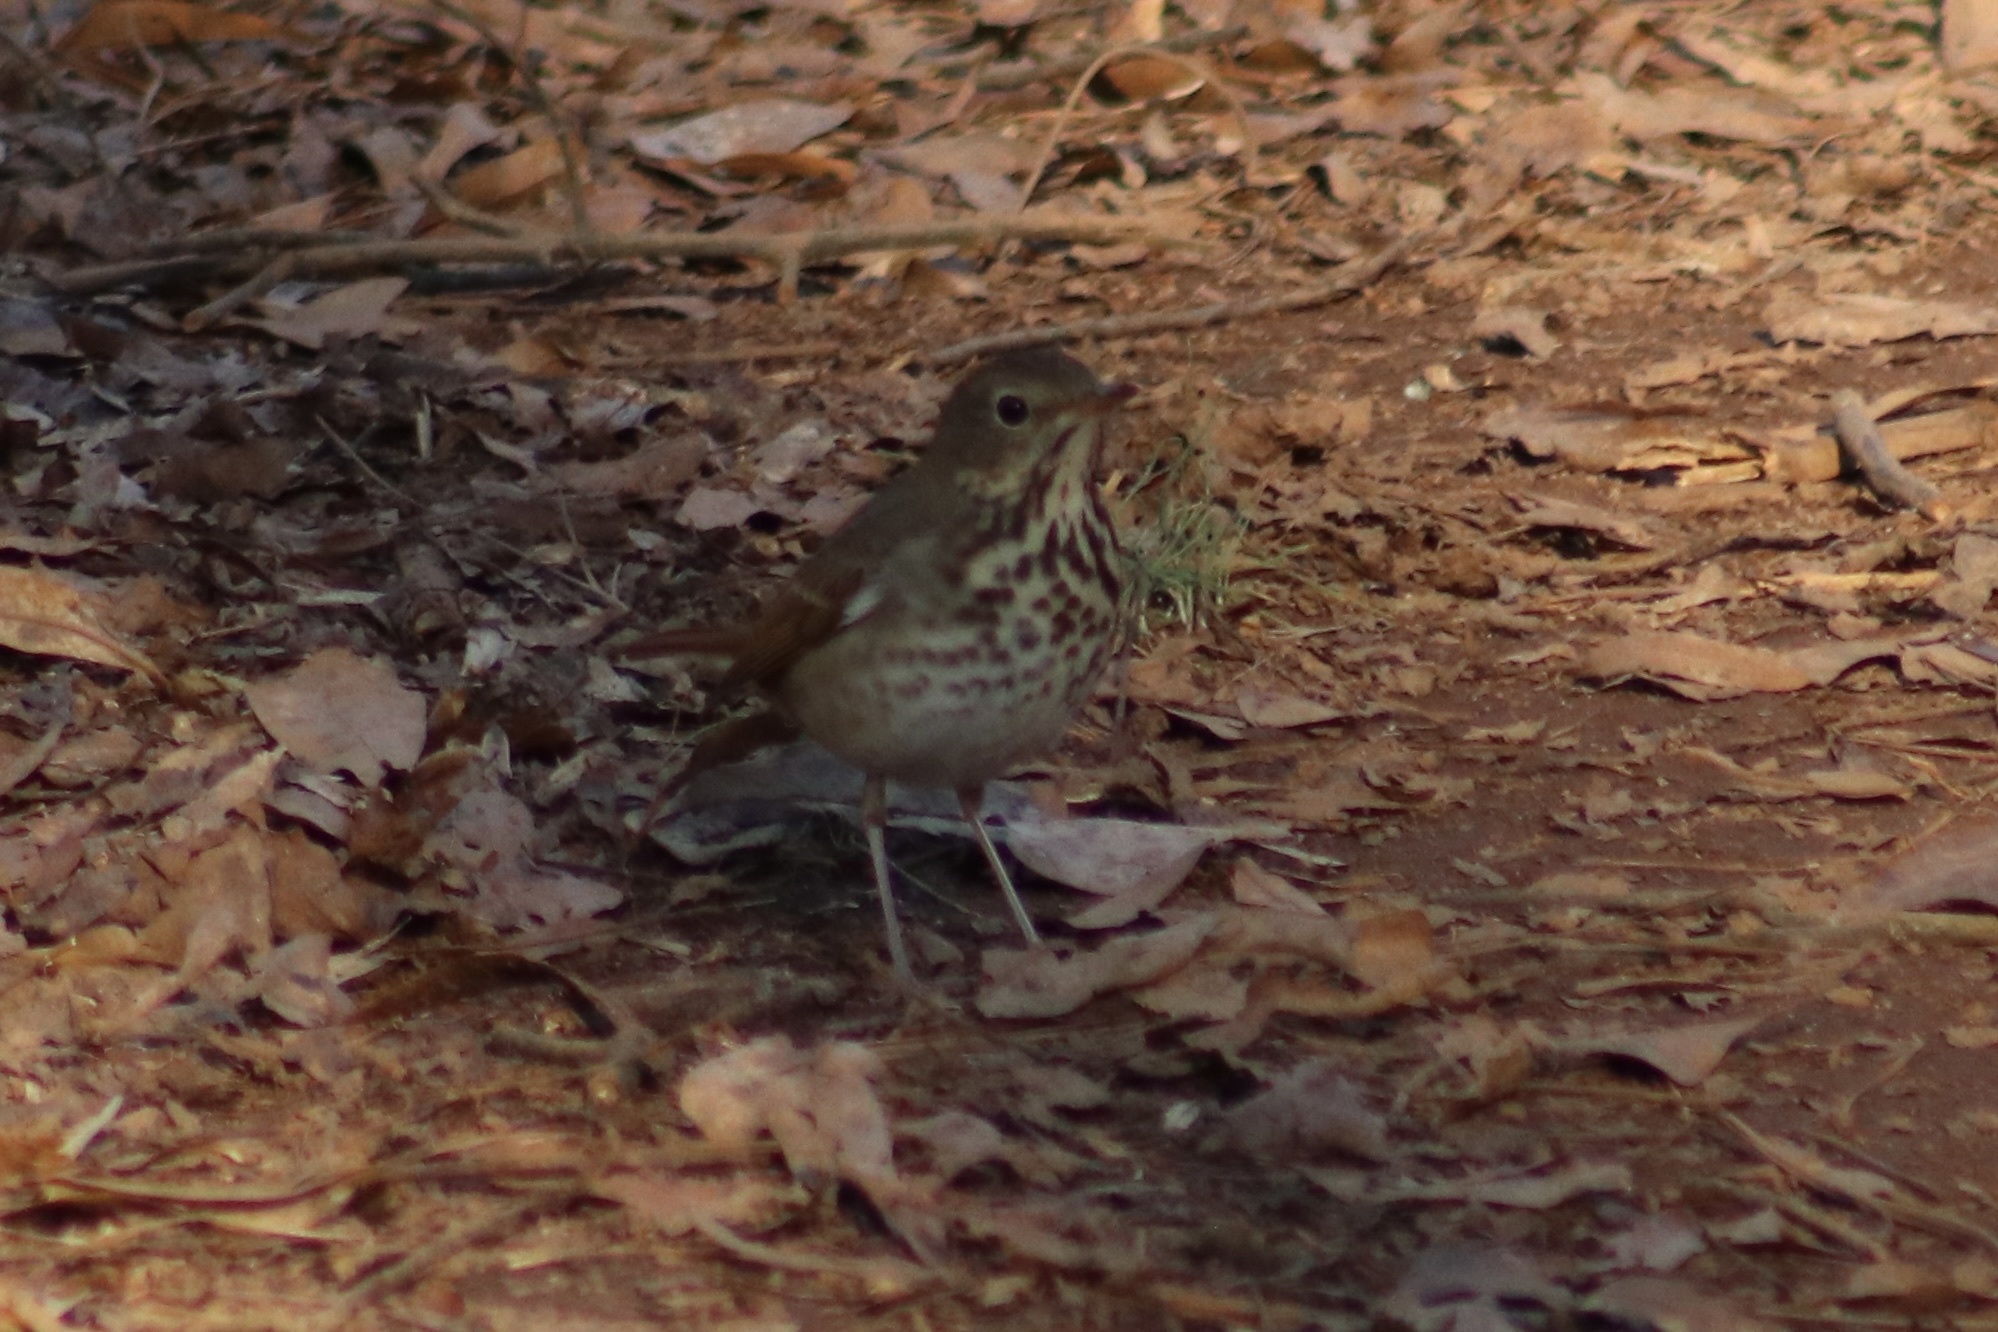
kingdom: Animalia
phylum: Chordata
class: Aves
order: Passeriformes
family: Turdidae
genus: Catharus
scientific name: Catharus guttatus
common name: Hermit thrush
